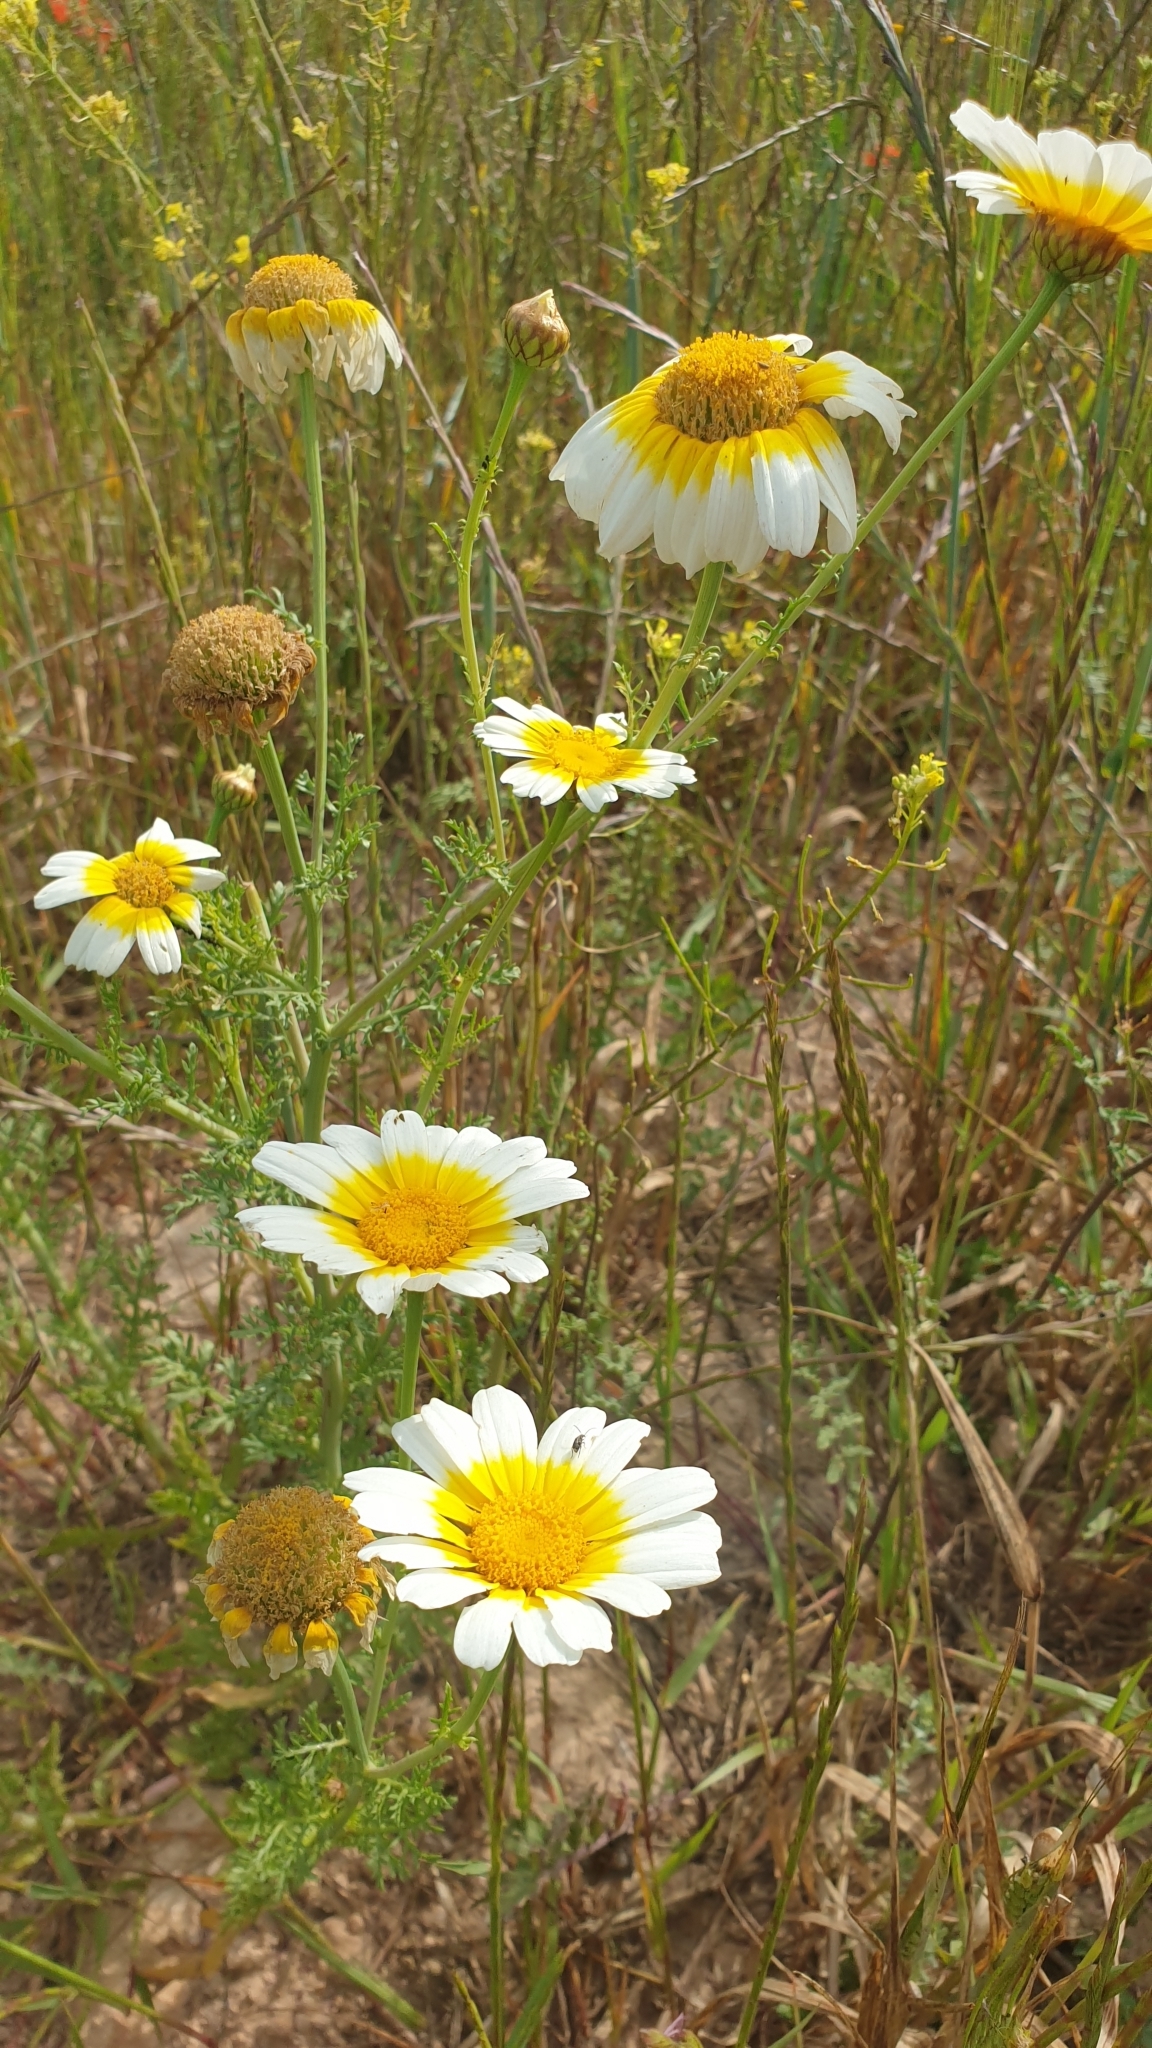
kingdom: Plantae
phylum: Tracheophyta
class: Magnoliopsida
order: Asterales
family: Asteraceae
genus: Glebionis
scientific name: Glebionis coronaria
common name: Crowndaisy
